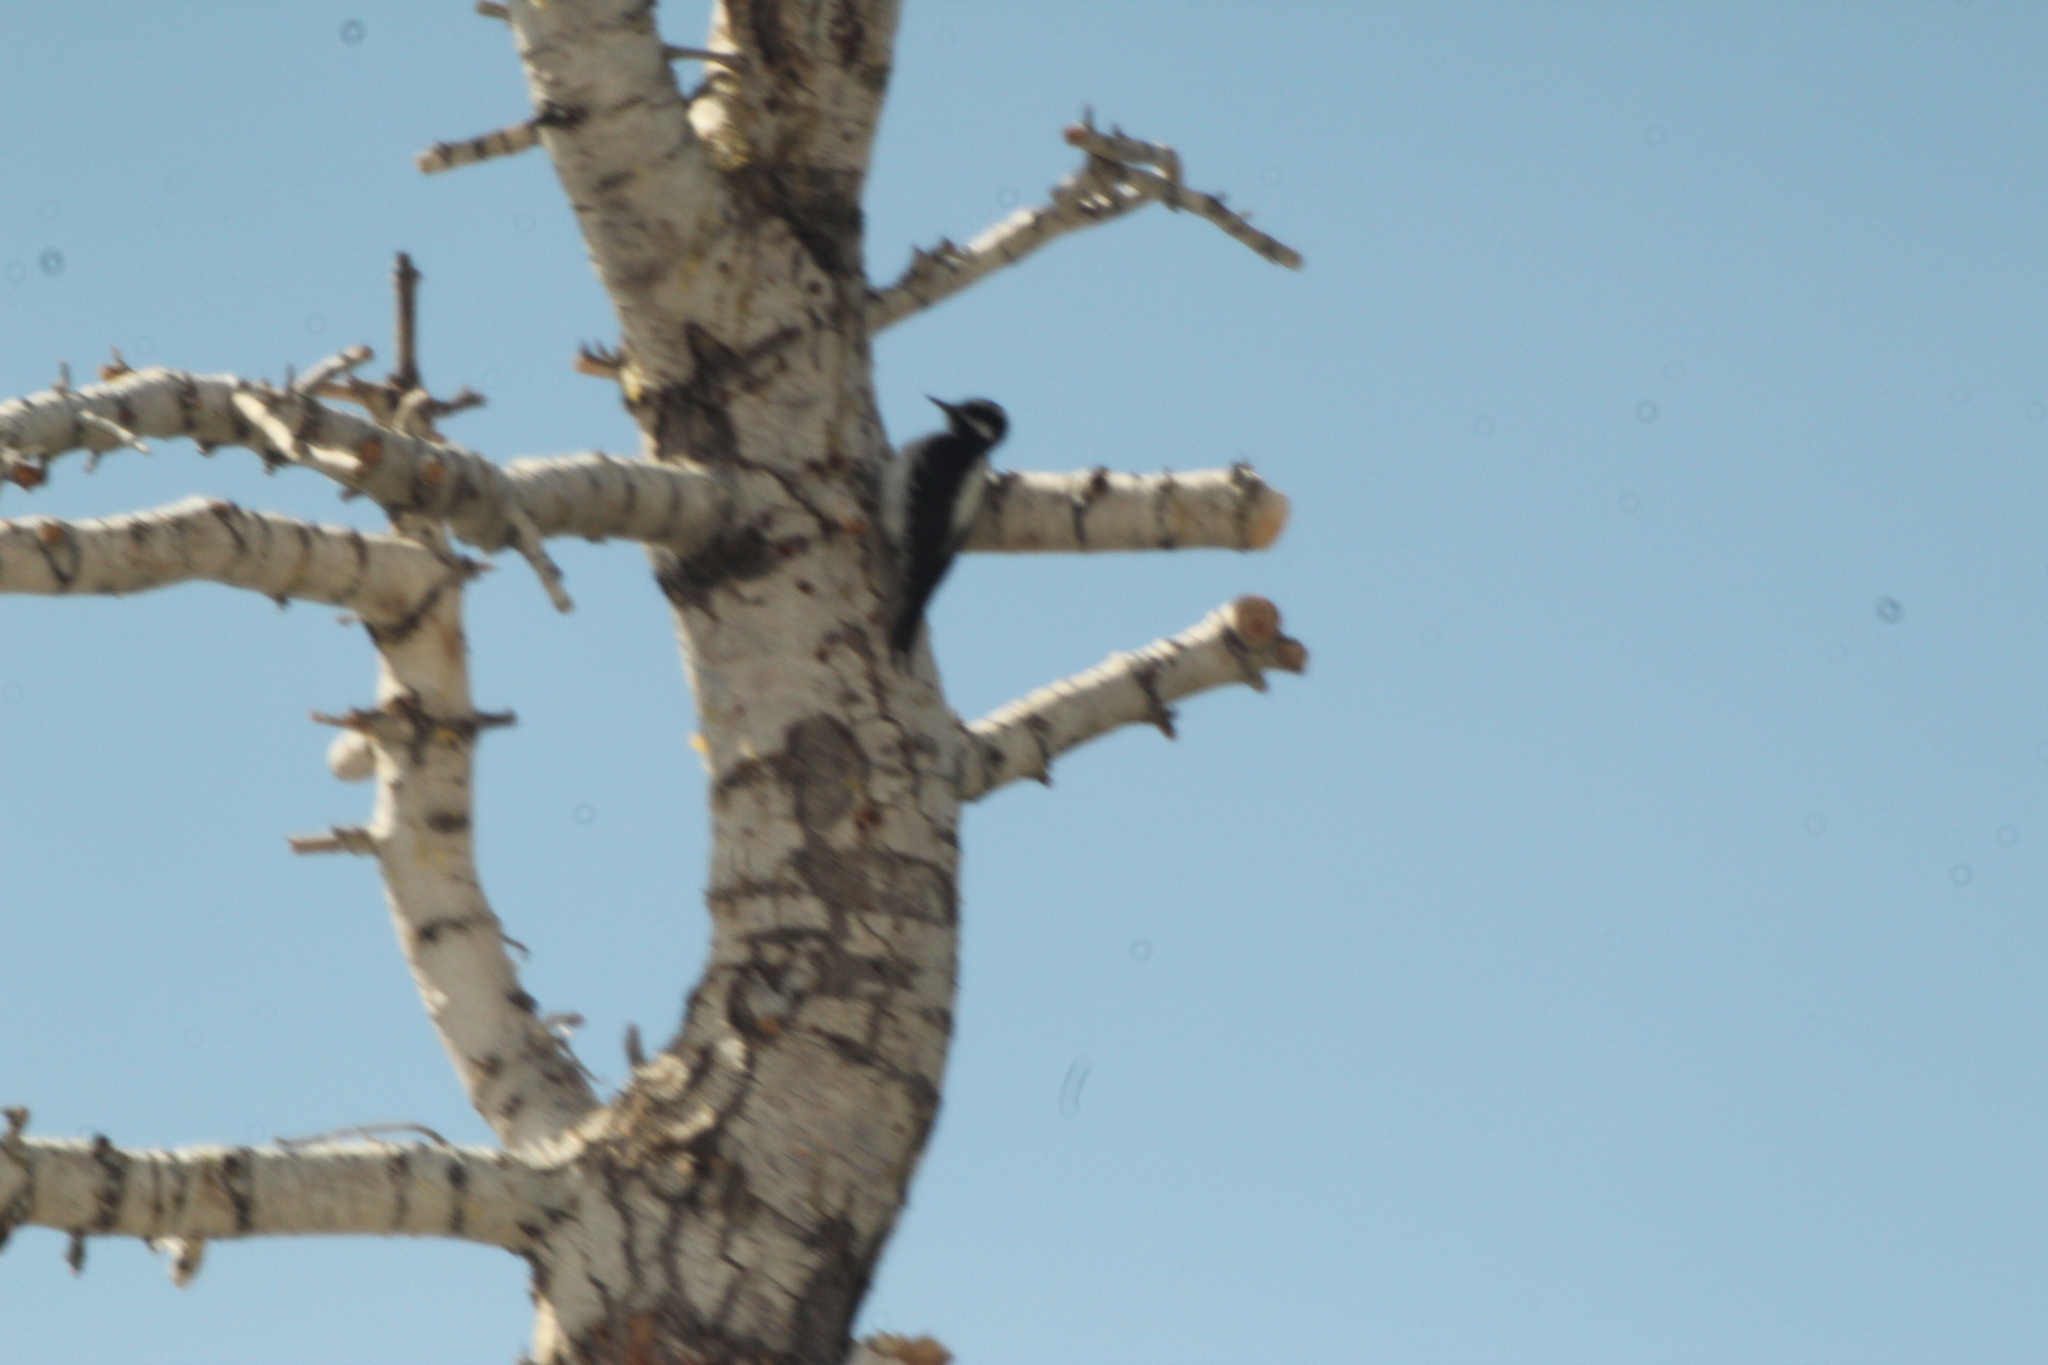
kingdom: Animalia
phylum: Chordata
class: Aves
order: Piciformes
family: Picidae
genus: Leuconotopicus
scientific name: Leuconotopicus villosus
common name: Hairy woodpecker
